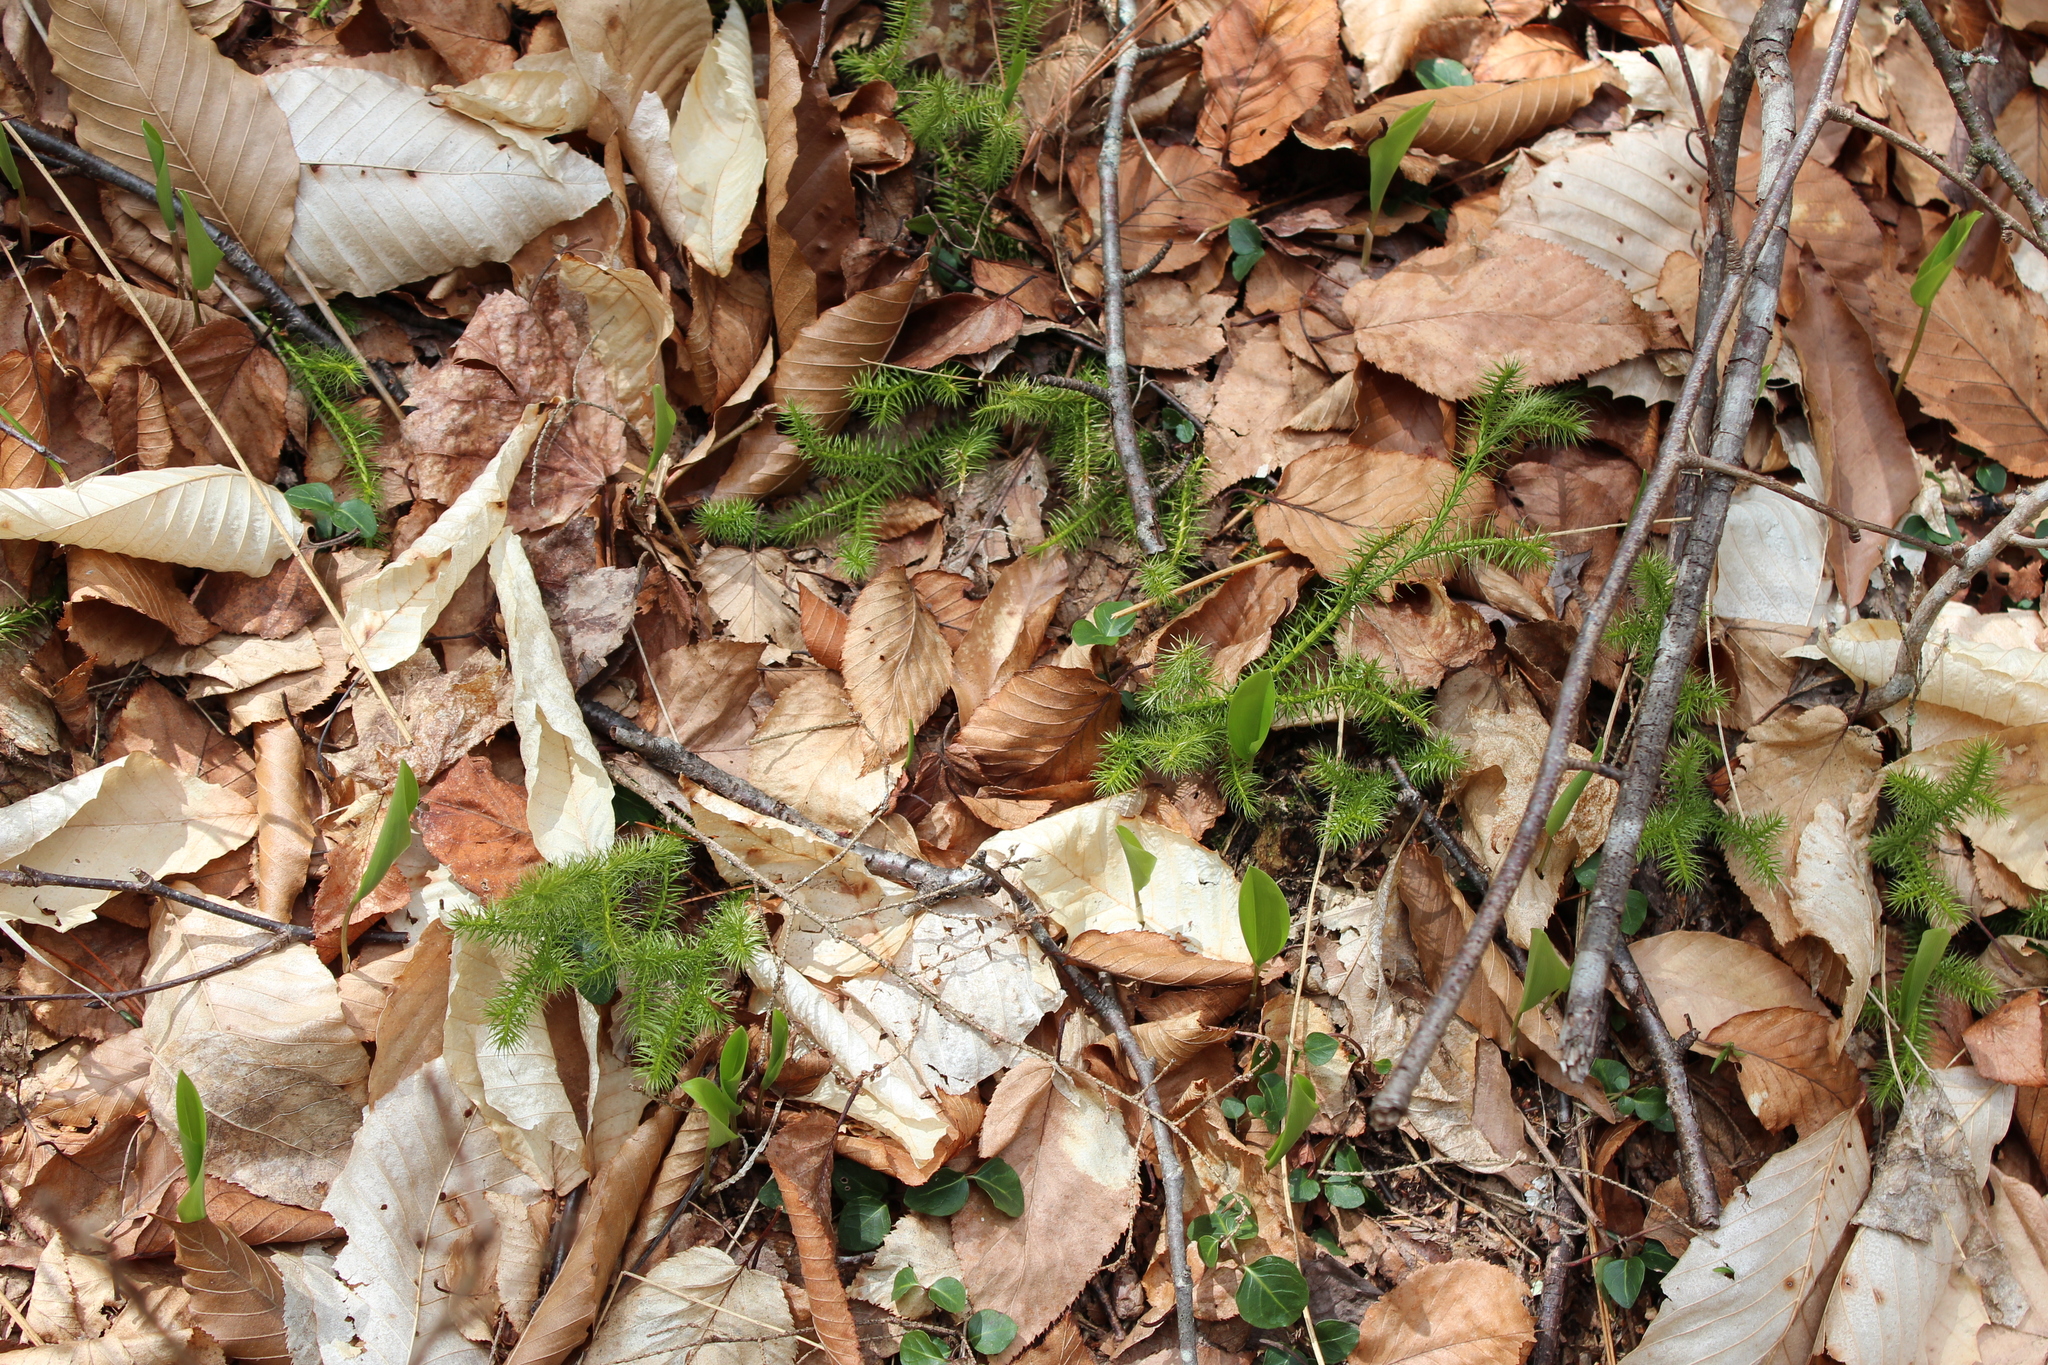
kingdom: Plantae
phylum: Tracheophyta
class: Lycopodiopsida
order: Lycopodiales
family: Lycopodiaceae
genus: Lycopodium
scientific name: Lycopodium clavatum
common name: Stag's-horn clubmoss
